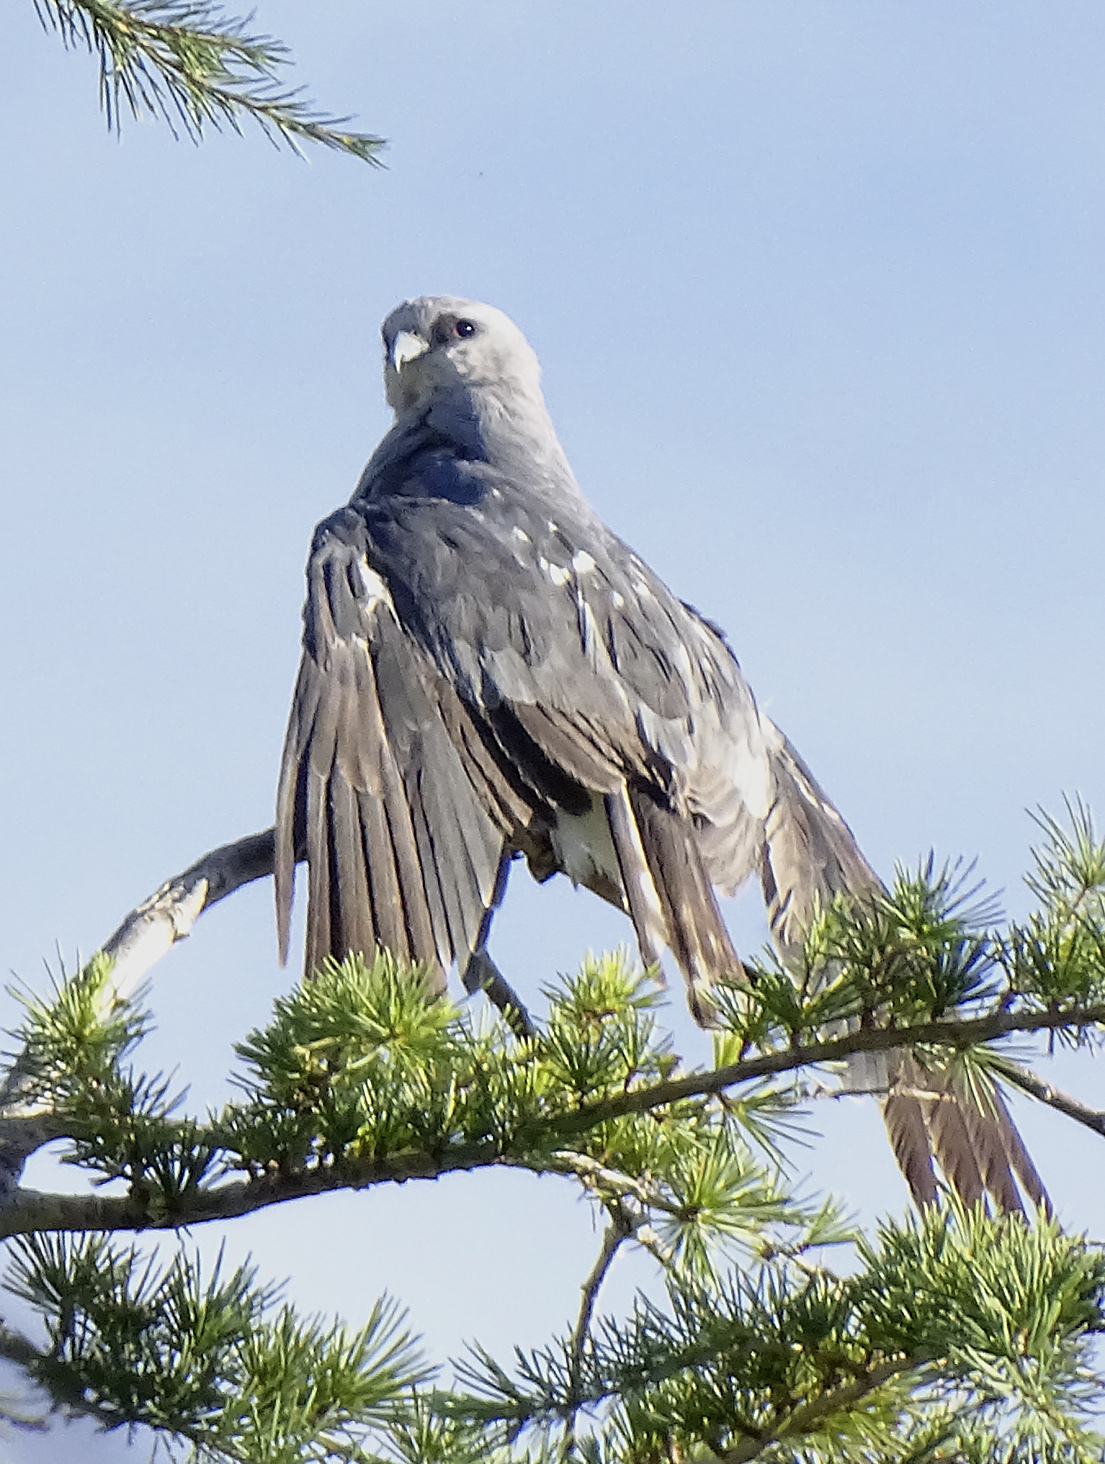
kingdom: Animalia
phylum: Chordata
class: Aves
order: Accipitriformes
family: Accipitridae
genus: Ictinia
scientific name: Ictinia mississippiensis
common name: Mississippi kite
